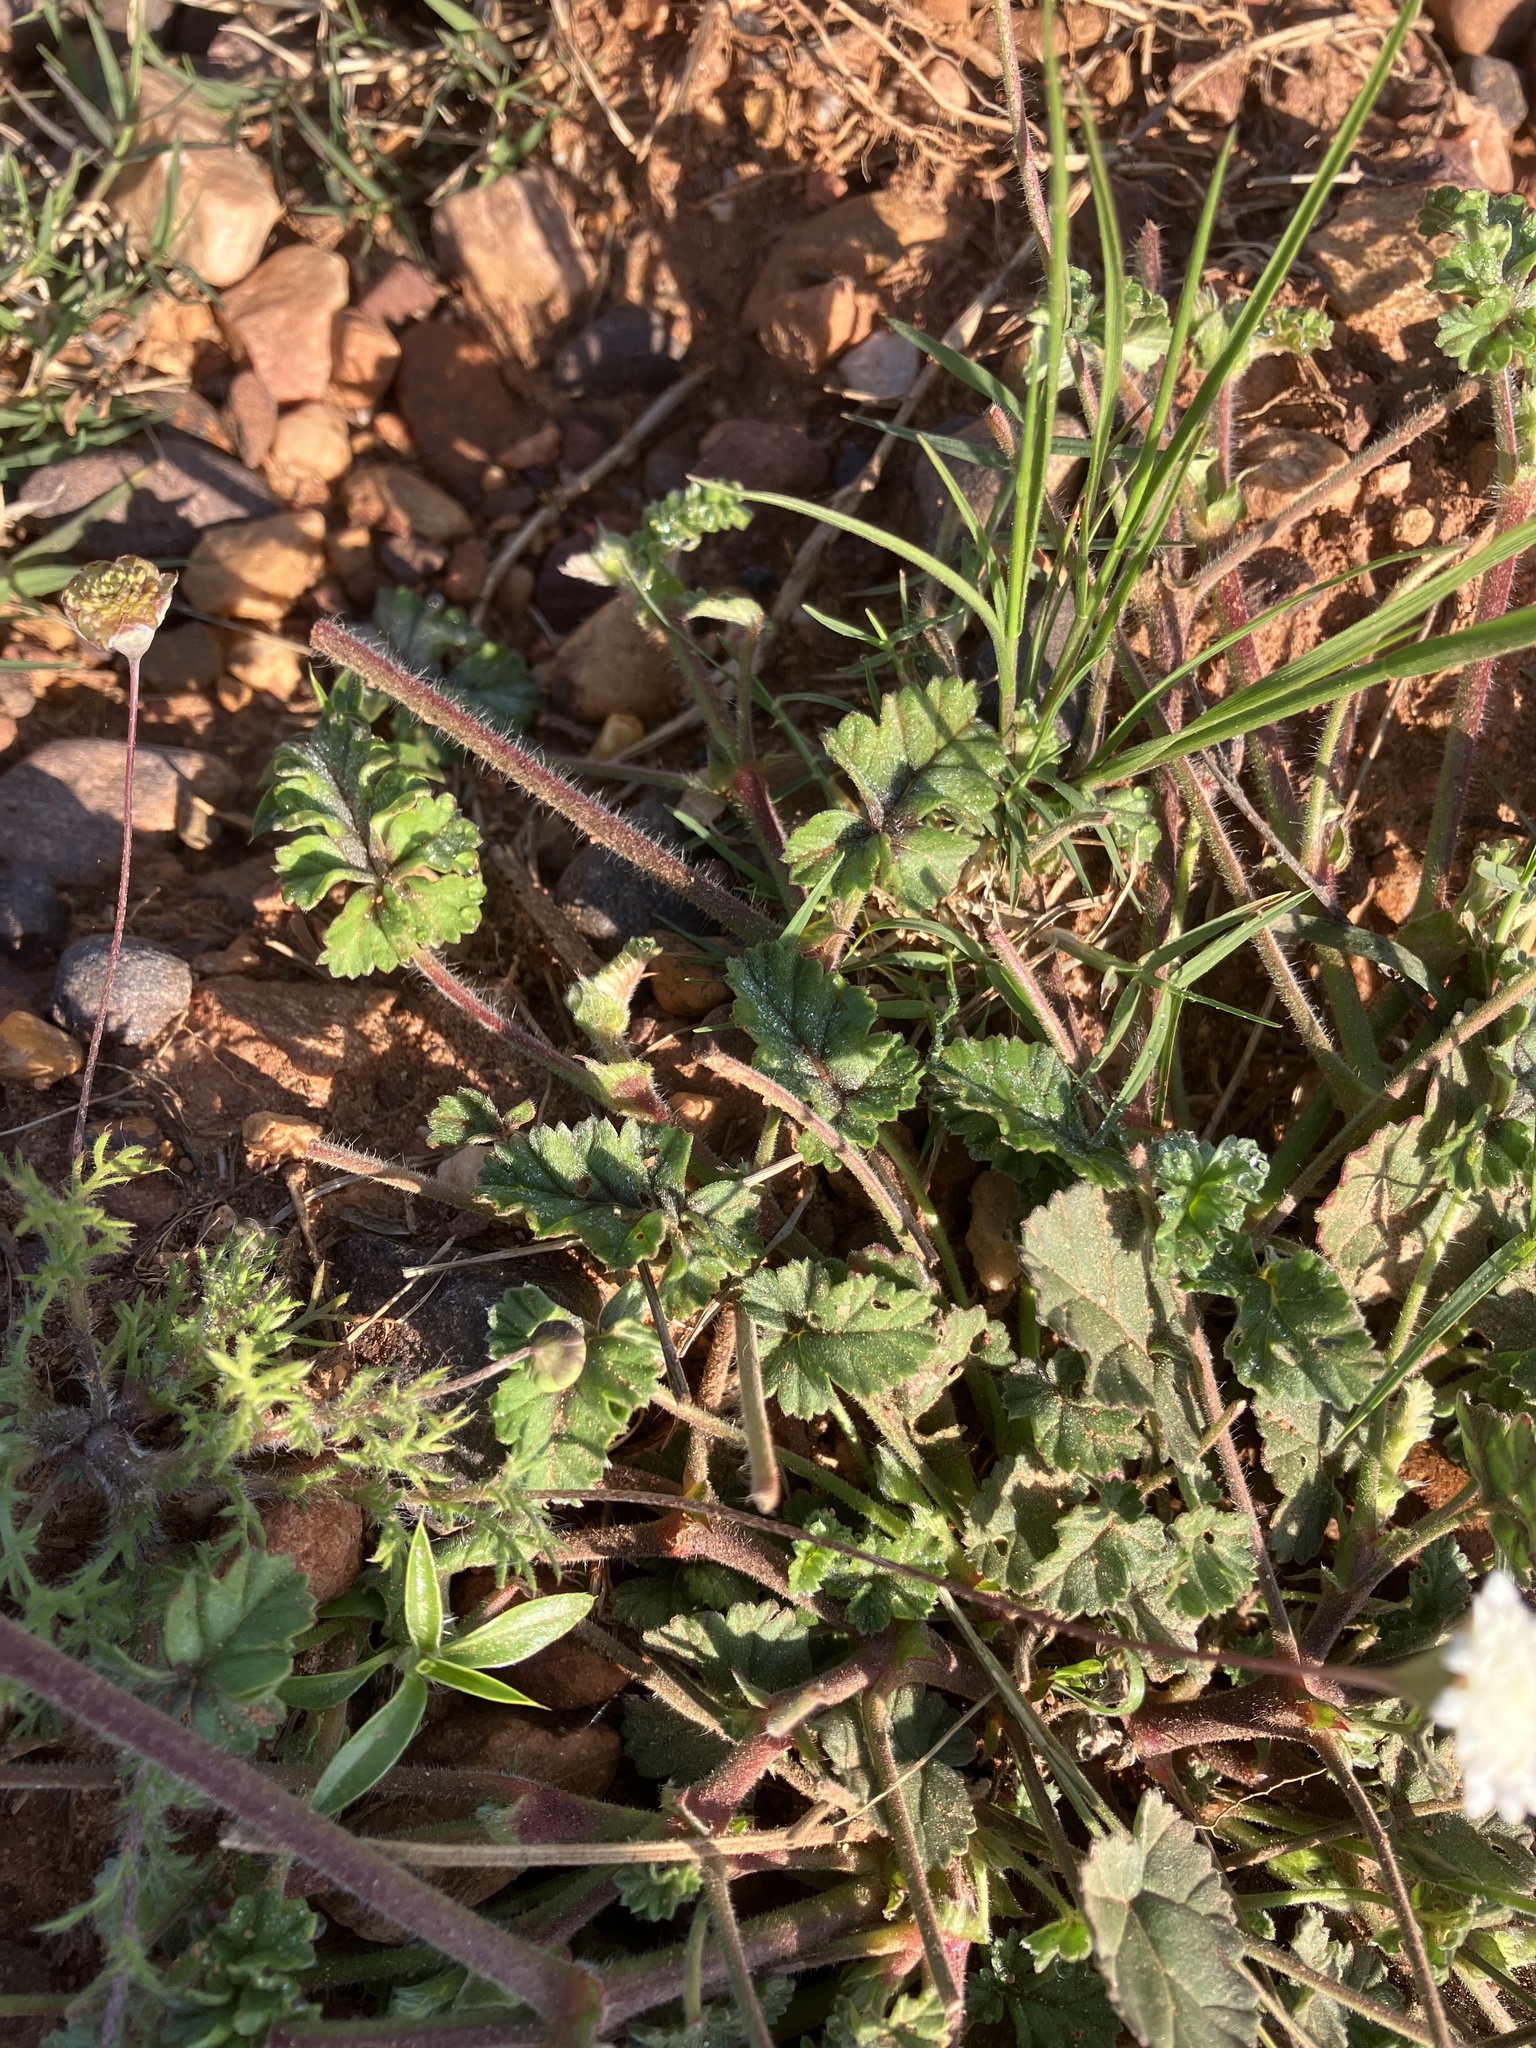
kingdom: Plantae
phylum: Tracheophyta
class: Magnoliopsida
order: Geraniales
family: Geraniaceae
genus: Pelargonium
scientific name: Pelargonium candicans
